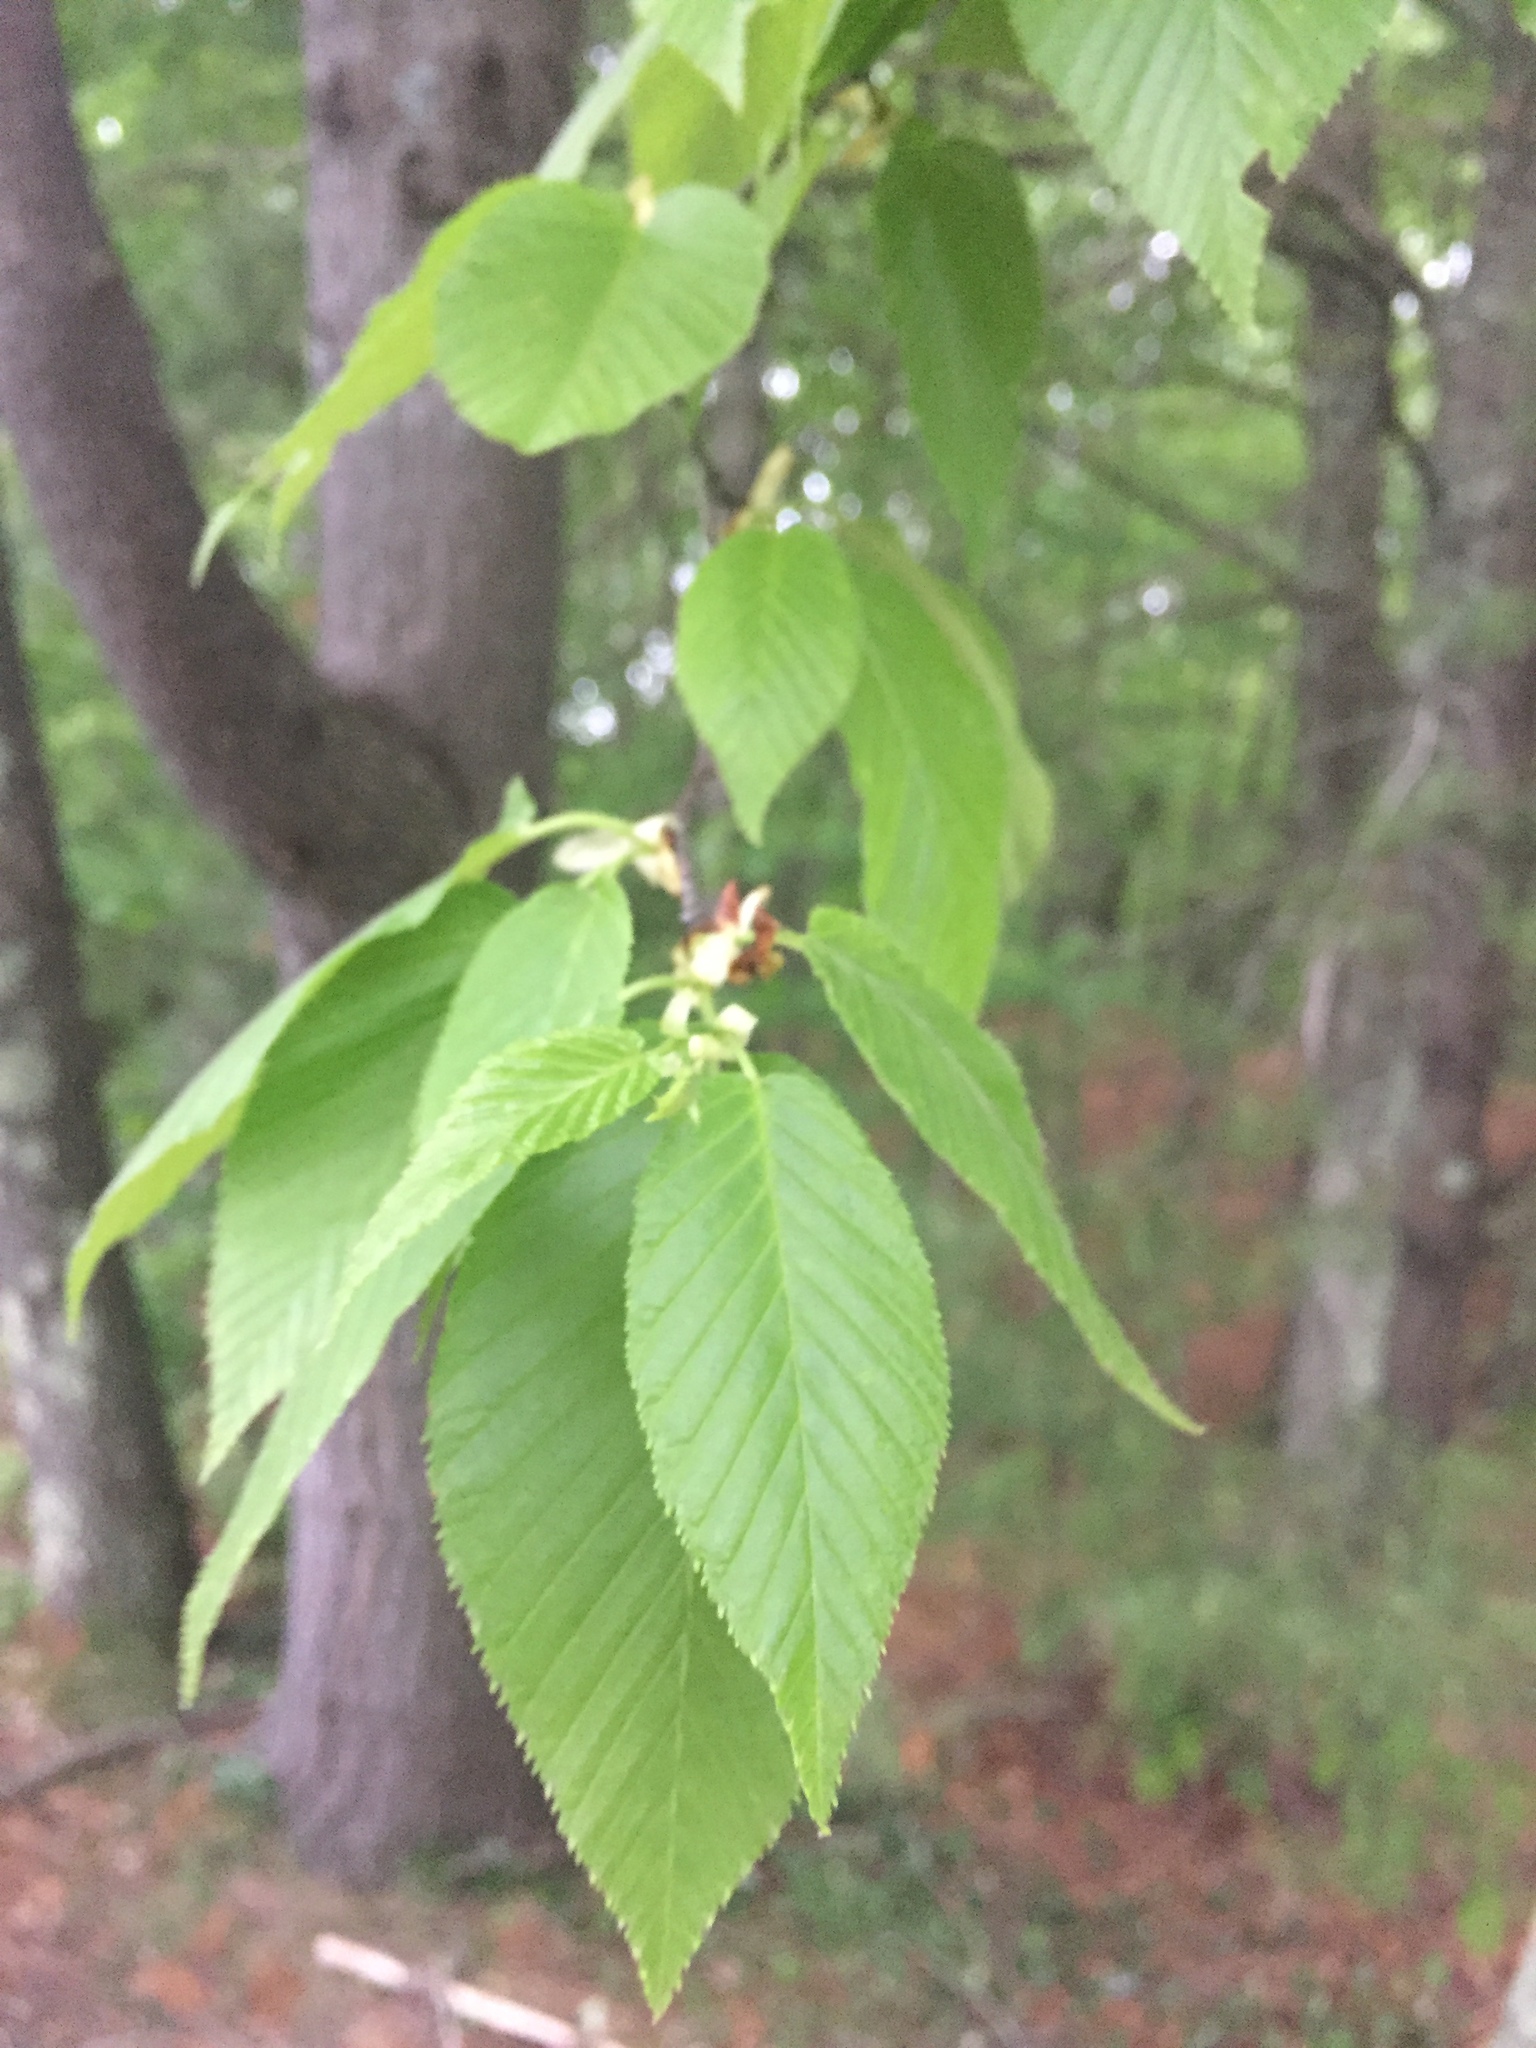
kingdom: Plantae
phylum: Tracheophyta
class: Magnoliopsida
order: Fagales
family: Betulaceae
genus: Betula
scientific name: Betula lenta
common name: Black birch
